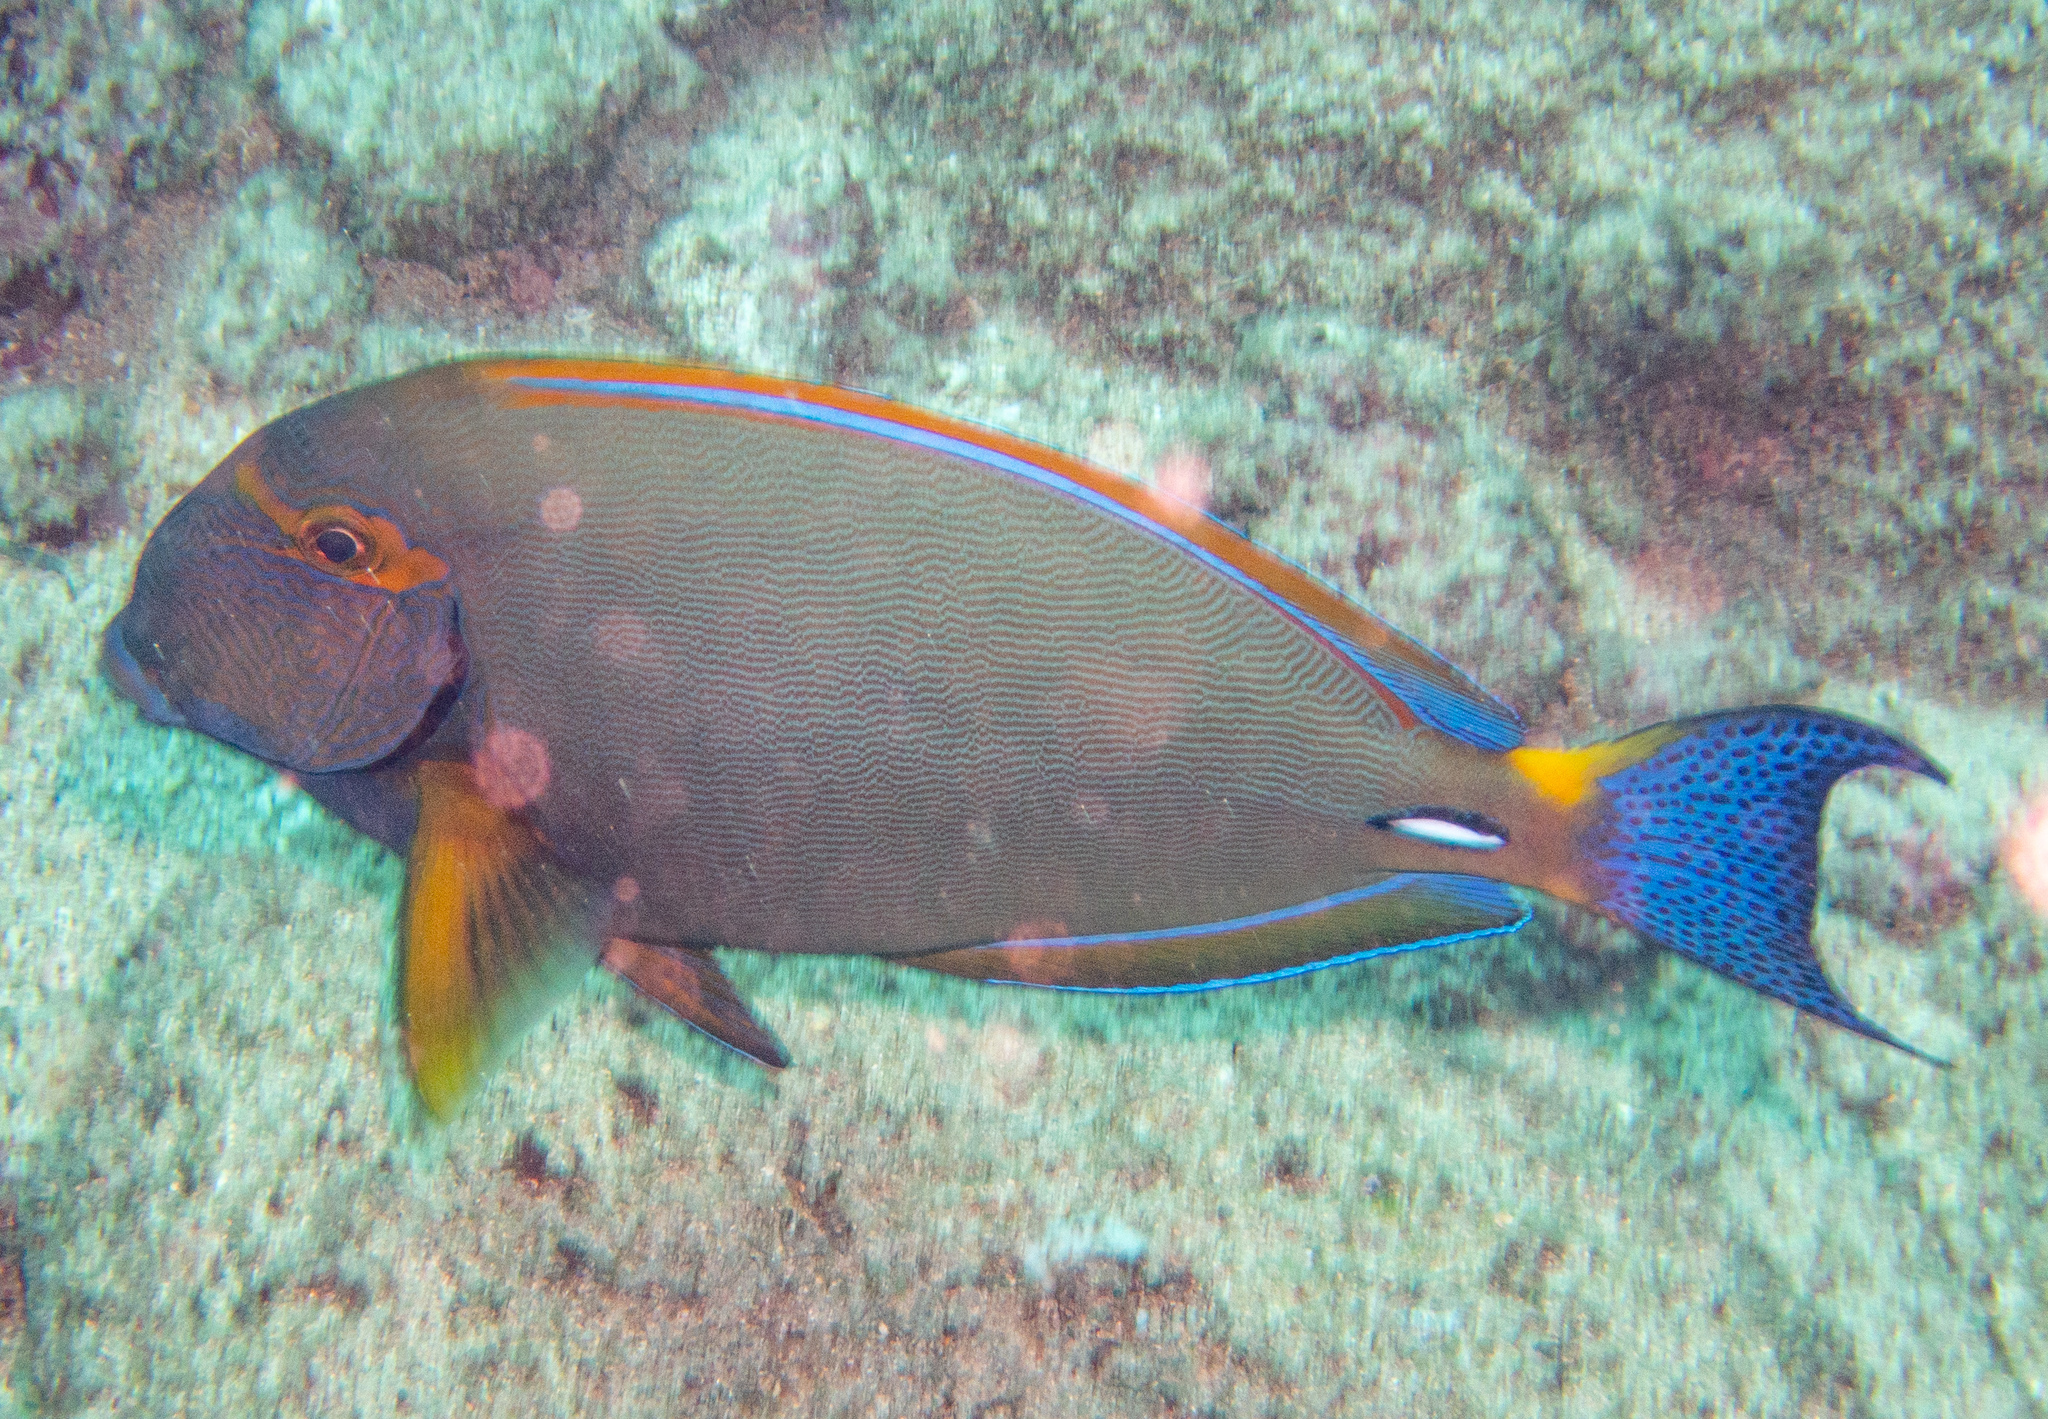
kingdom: Animalia
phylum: Chordata
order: Perciformes
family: Acanthuridae
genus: Acanthurus
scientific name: Acanthurus dussumieri
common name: Dussumier's surgeonfish
